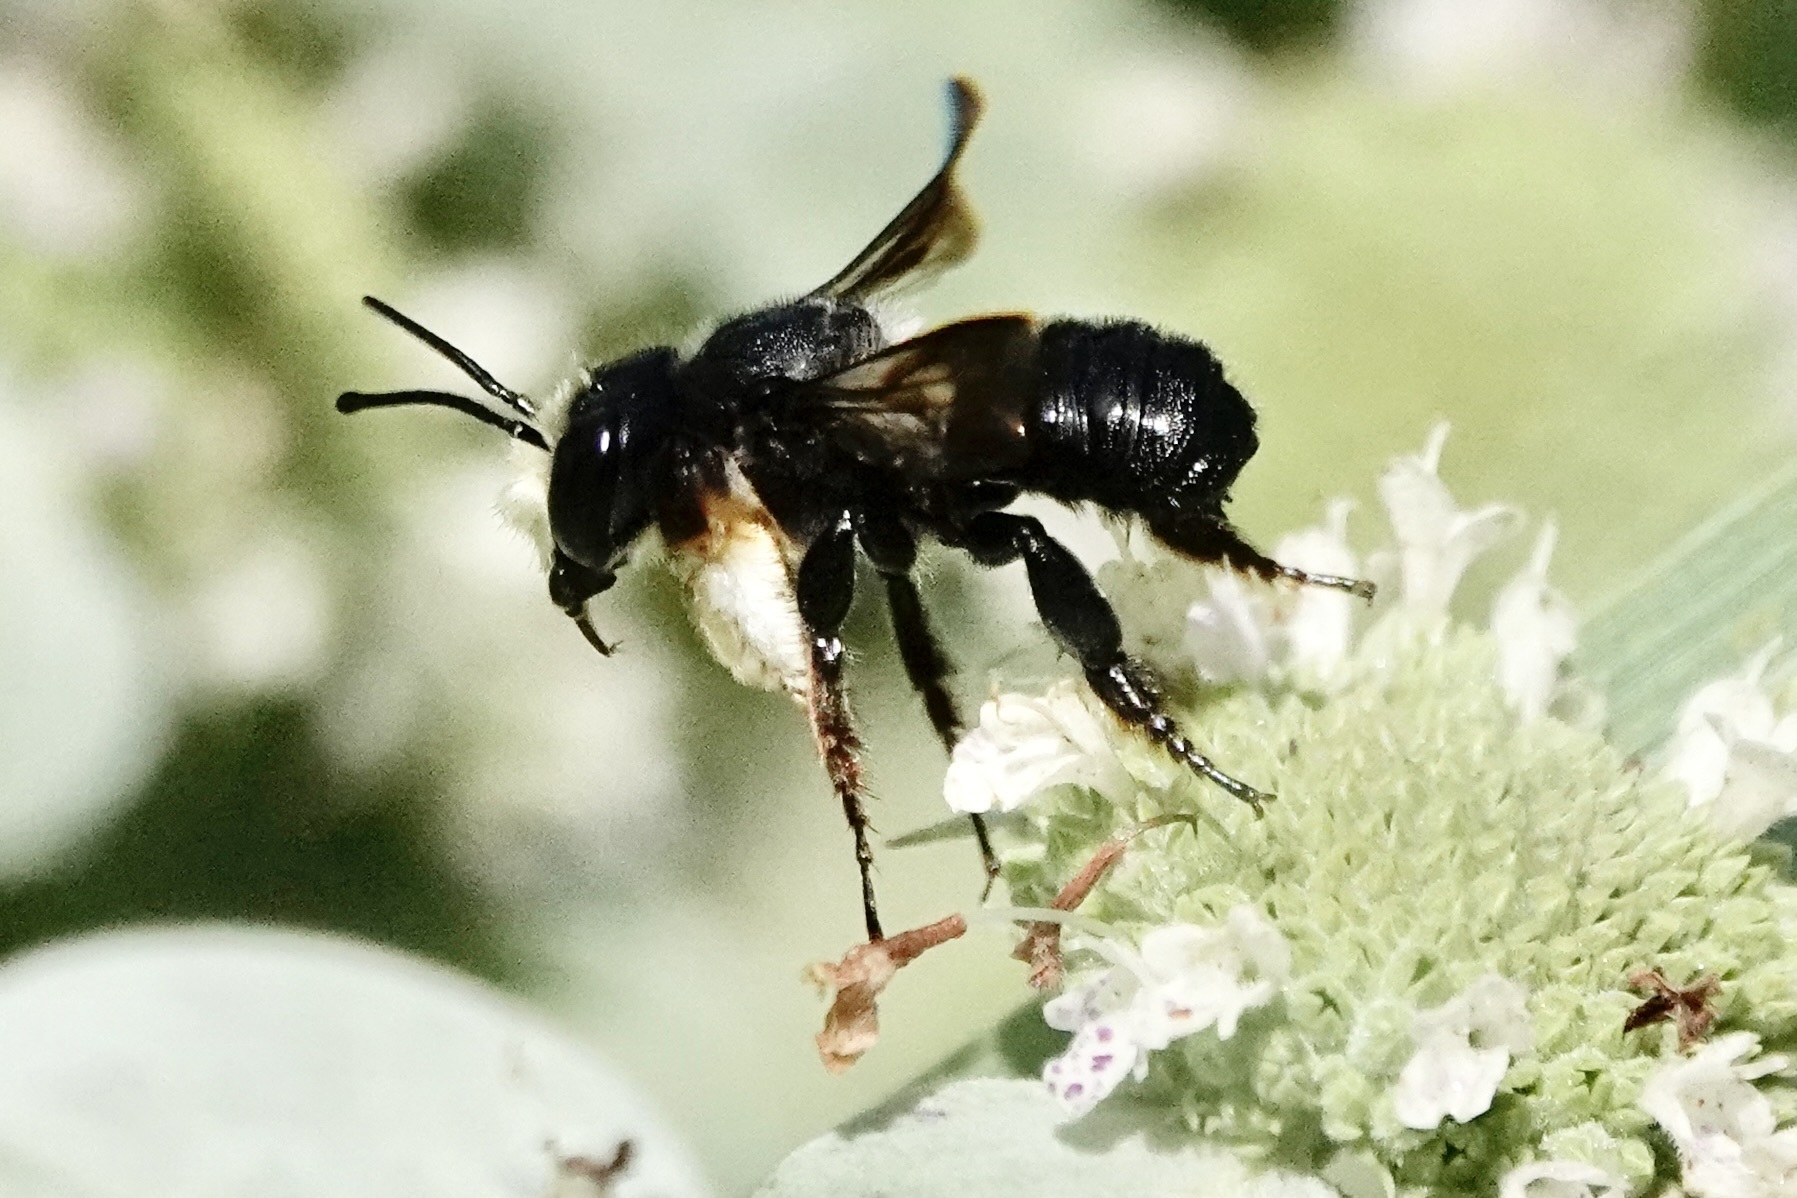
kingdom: Animalia
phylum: Arthropoda
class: Insecta
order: Hymenoptera
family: Megachilidae
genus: Megachile
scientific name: Megachile xylocopoides
